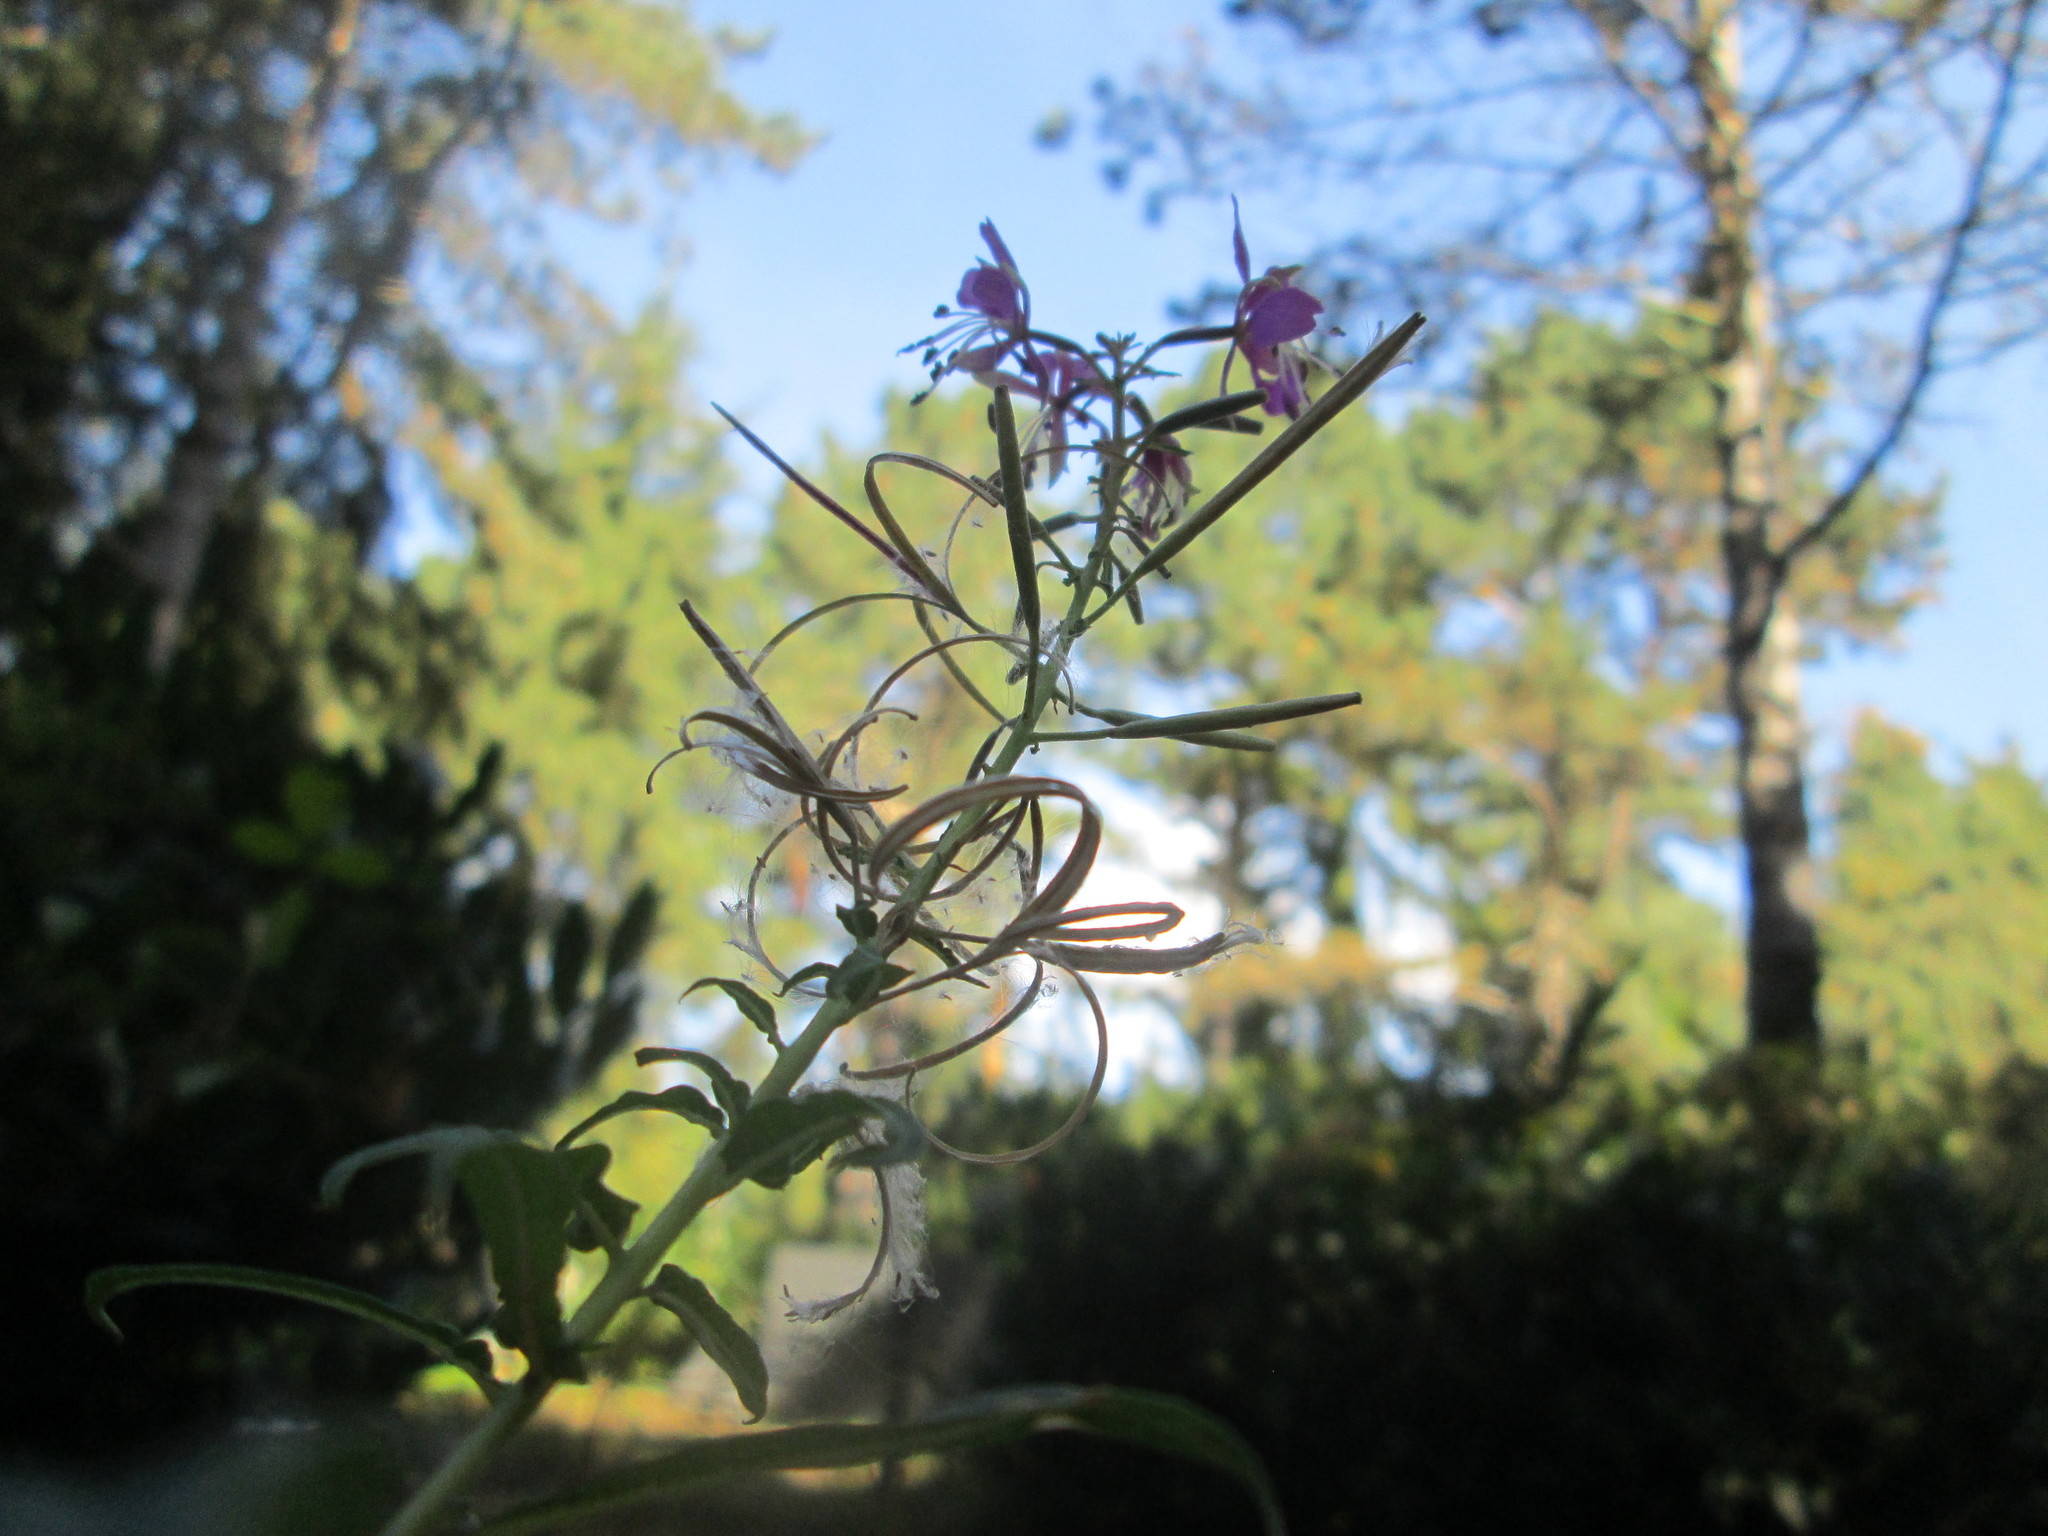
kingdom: Plantae
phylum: Tracheophyta
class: Magnoliopsida
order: Myrtales
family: Onagraceae
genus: Chamaenerion
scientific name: Chamaenerion angustifolium
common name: Fireweed
